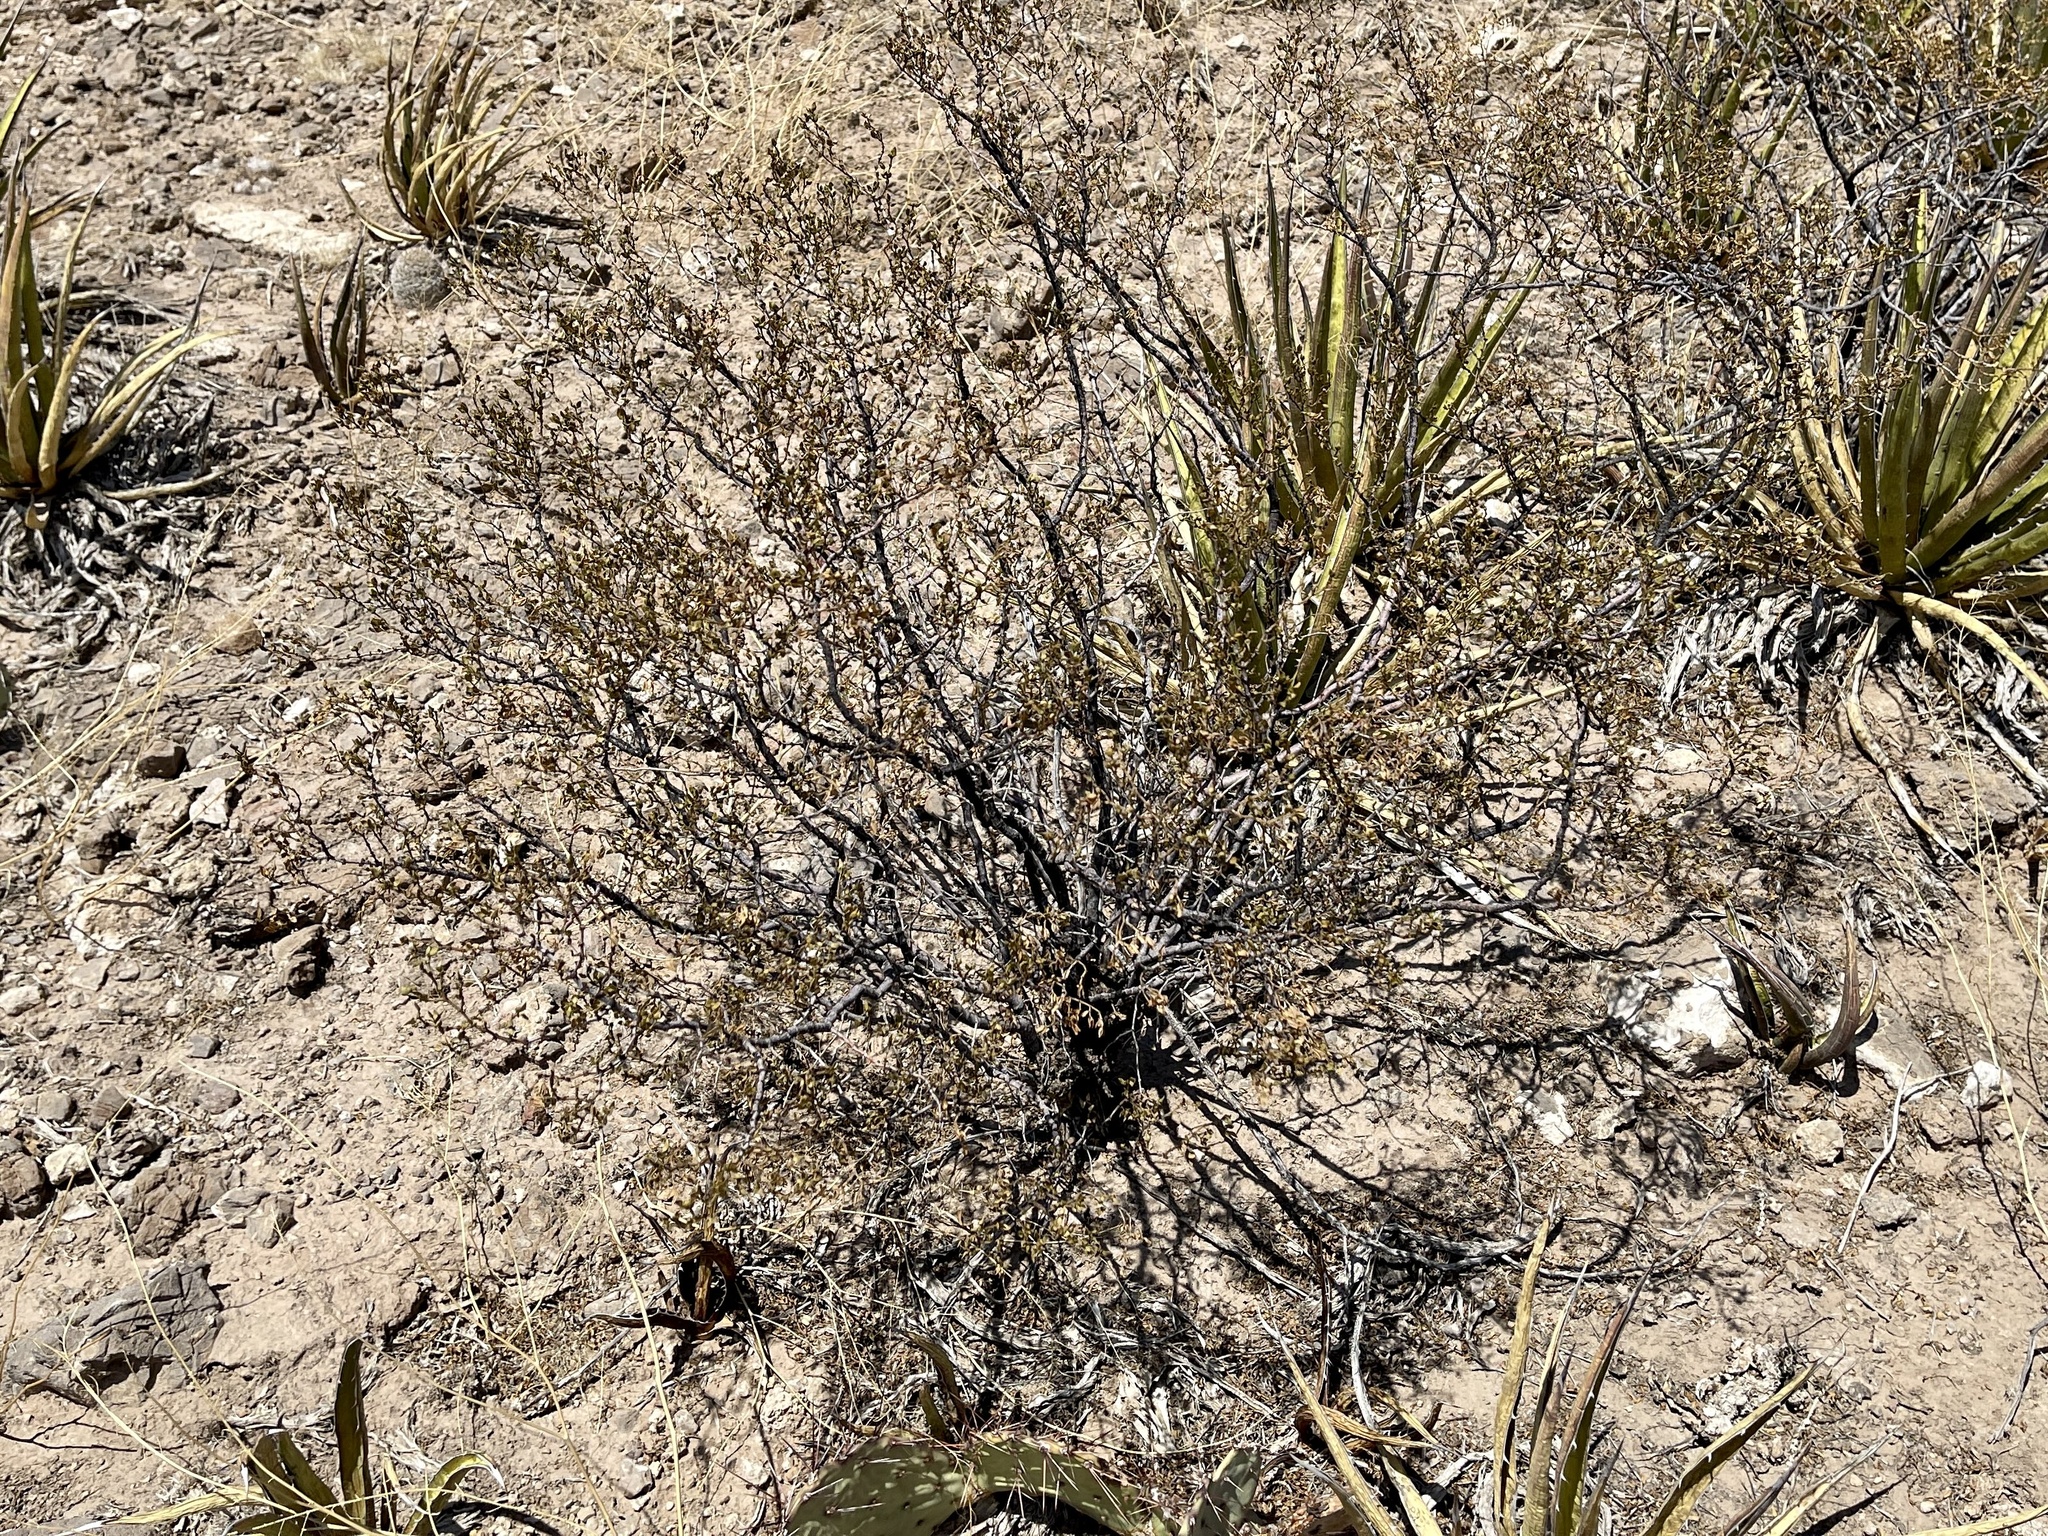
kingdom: Plantae
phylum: Tracheophyta
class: Magnoliopsida
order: Zygophyllales
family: Zygophyllaceae
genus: Larrea
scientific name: Larrea tridentata
